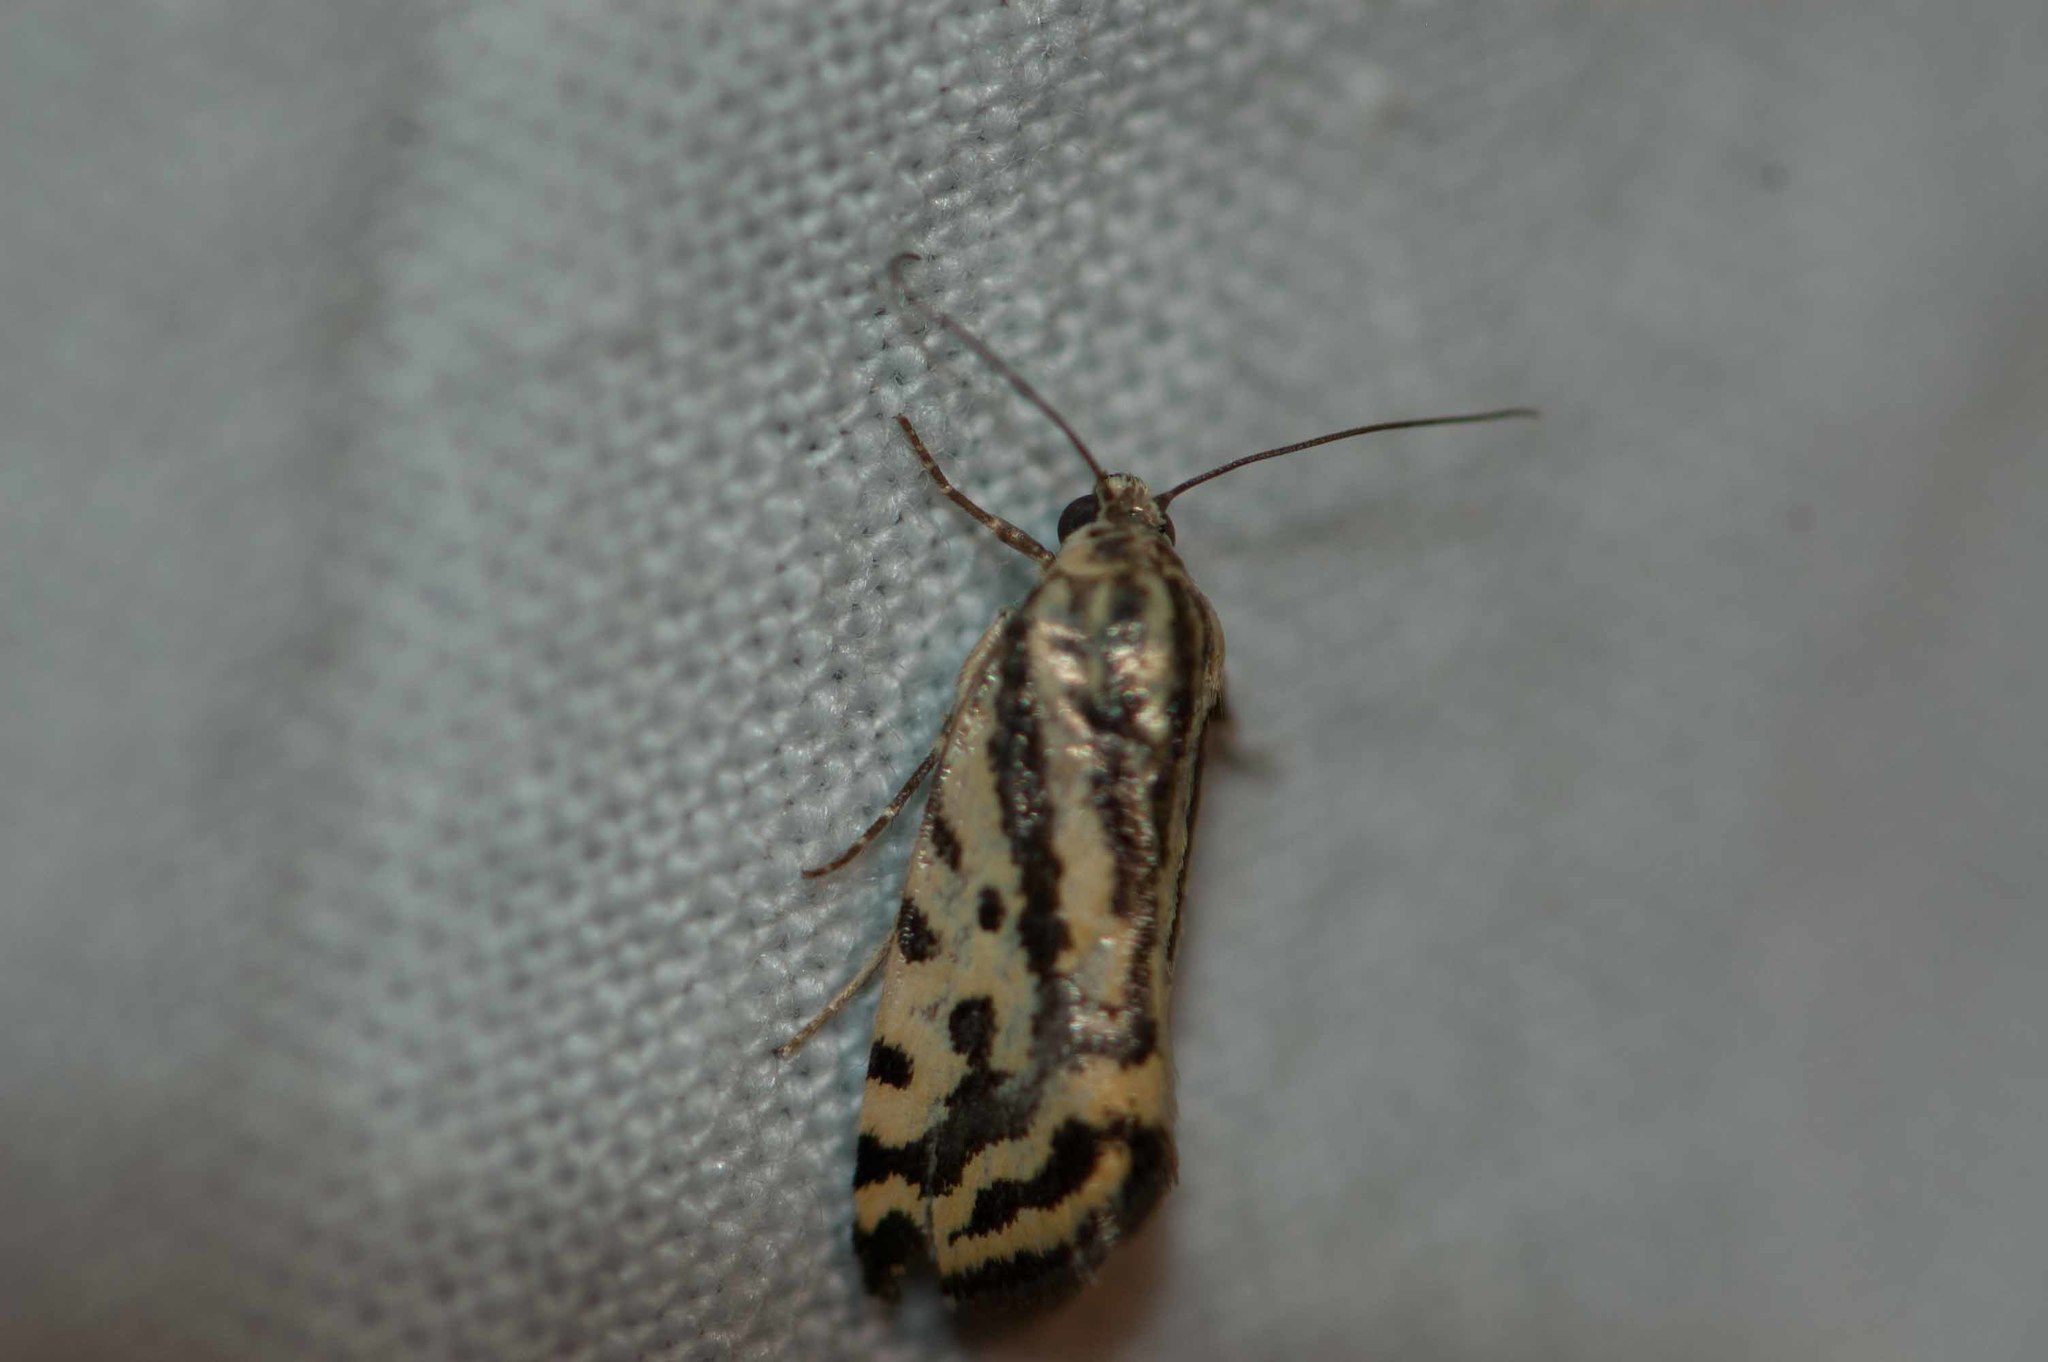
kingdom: Animalia
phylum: Arthropoda
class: Insecta
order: Lepidoptera
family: Noctuidae
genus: Acontia
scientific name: Acontia trabealis
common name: Spotted sulphur
